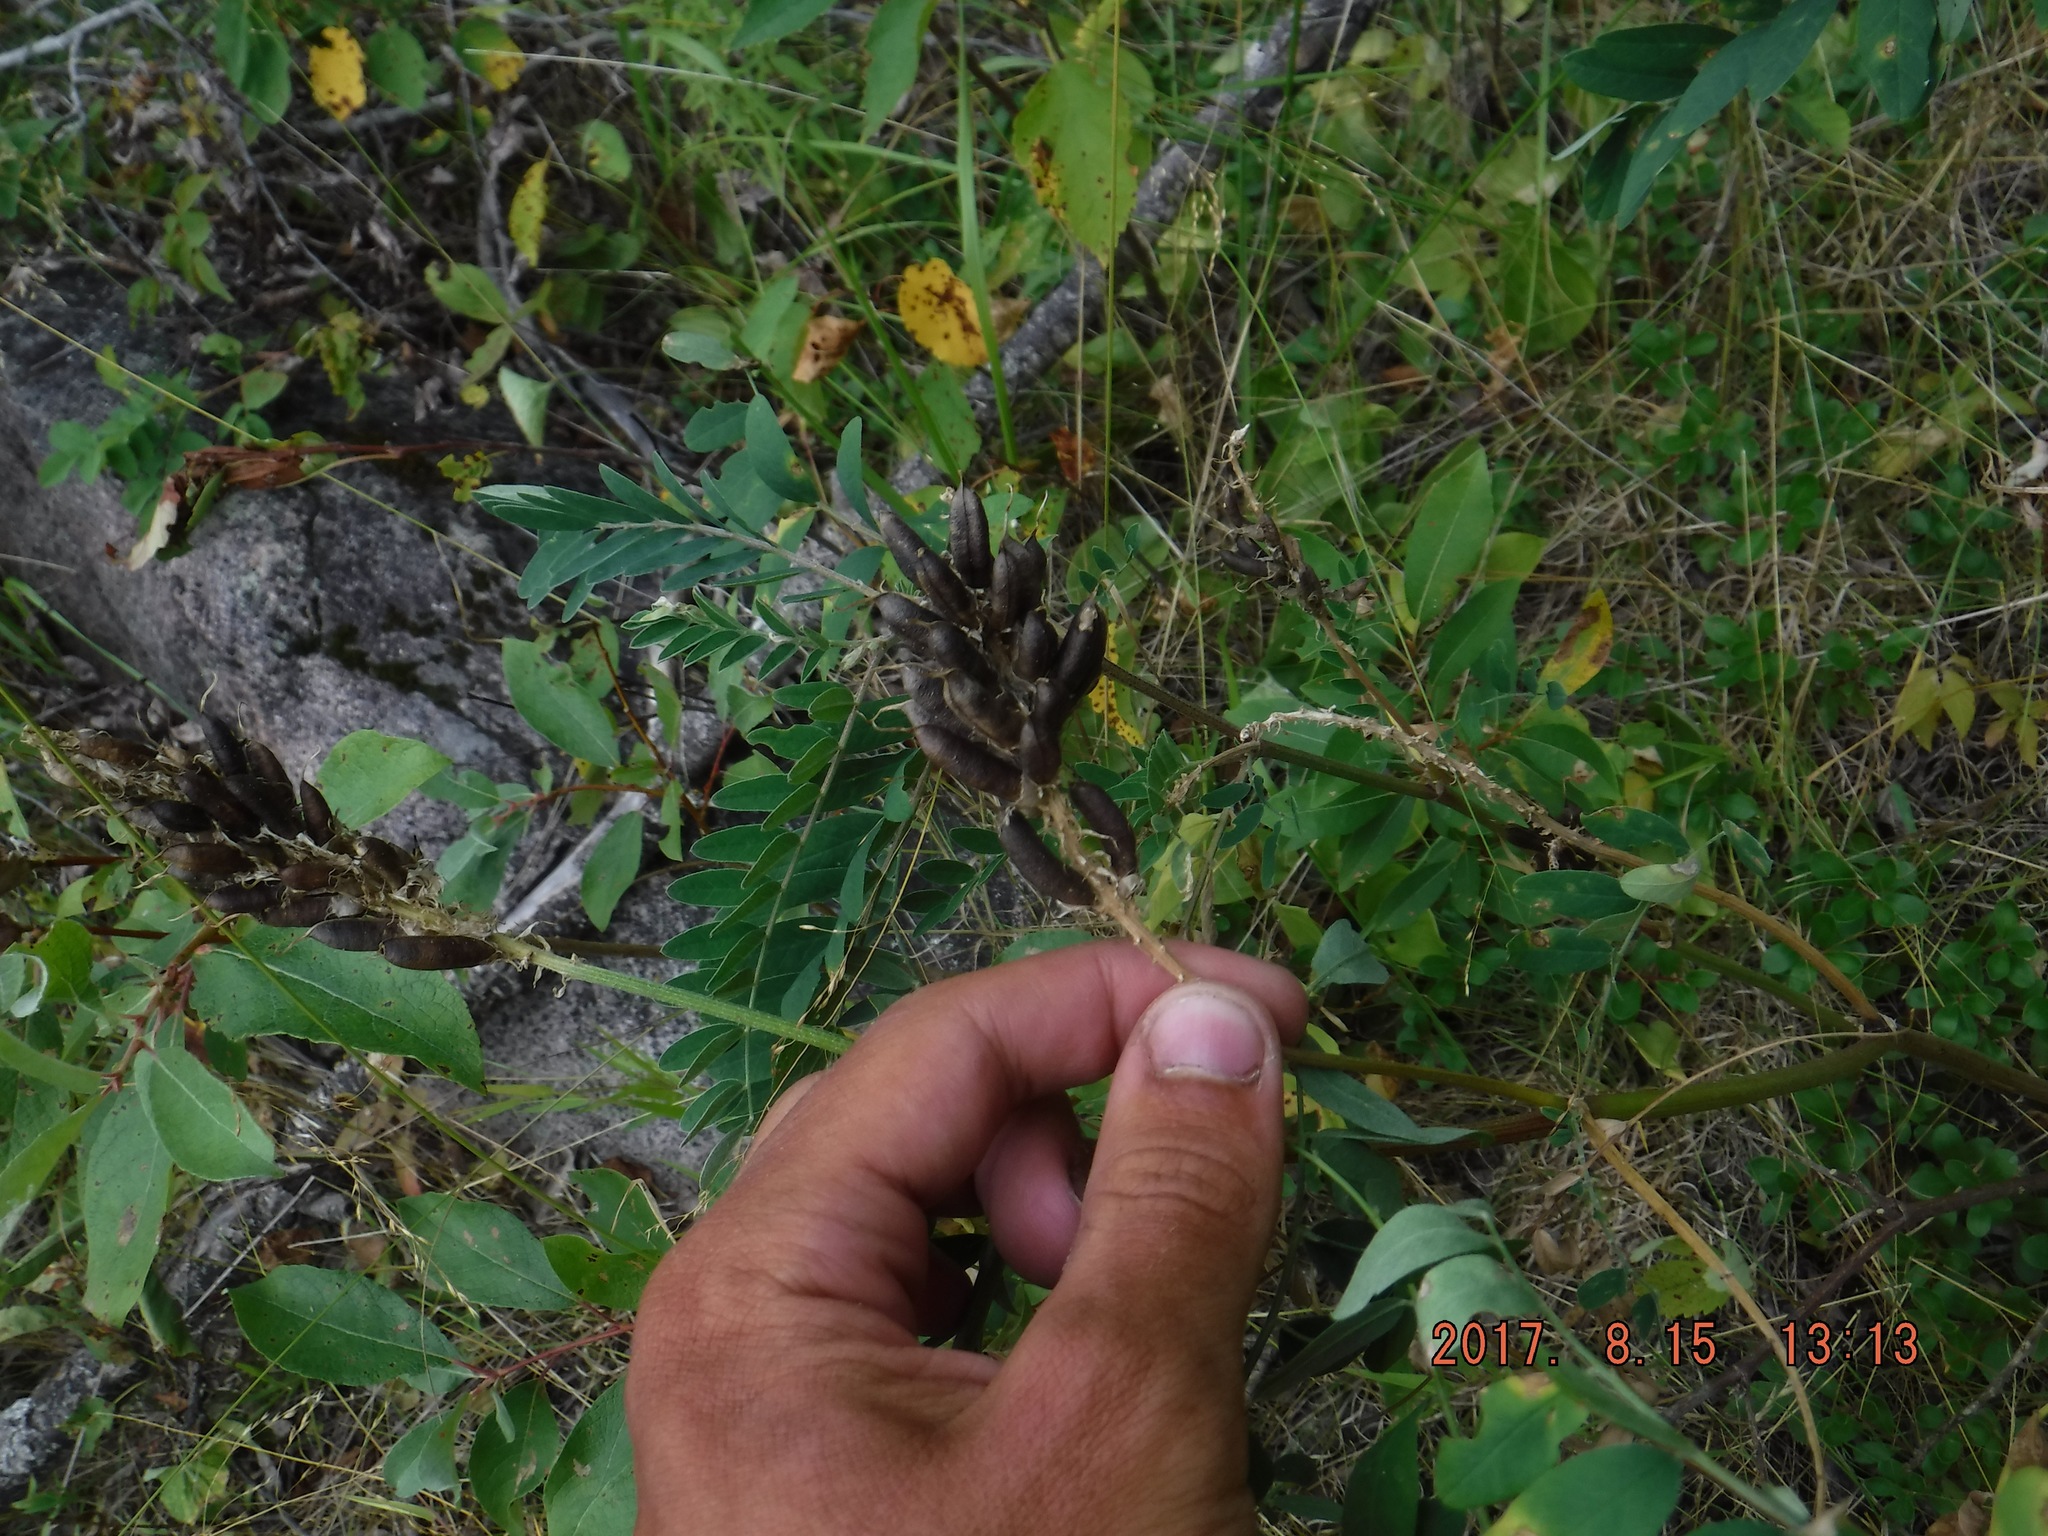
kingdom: Plantae
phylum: Tracheophyta
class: Magnoliopsida
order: Fabales
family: Fabaceae
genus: Astragalus
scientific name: Astragalus canadensis
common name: Canada milk-vetch
